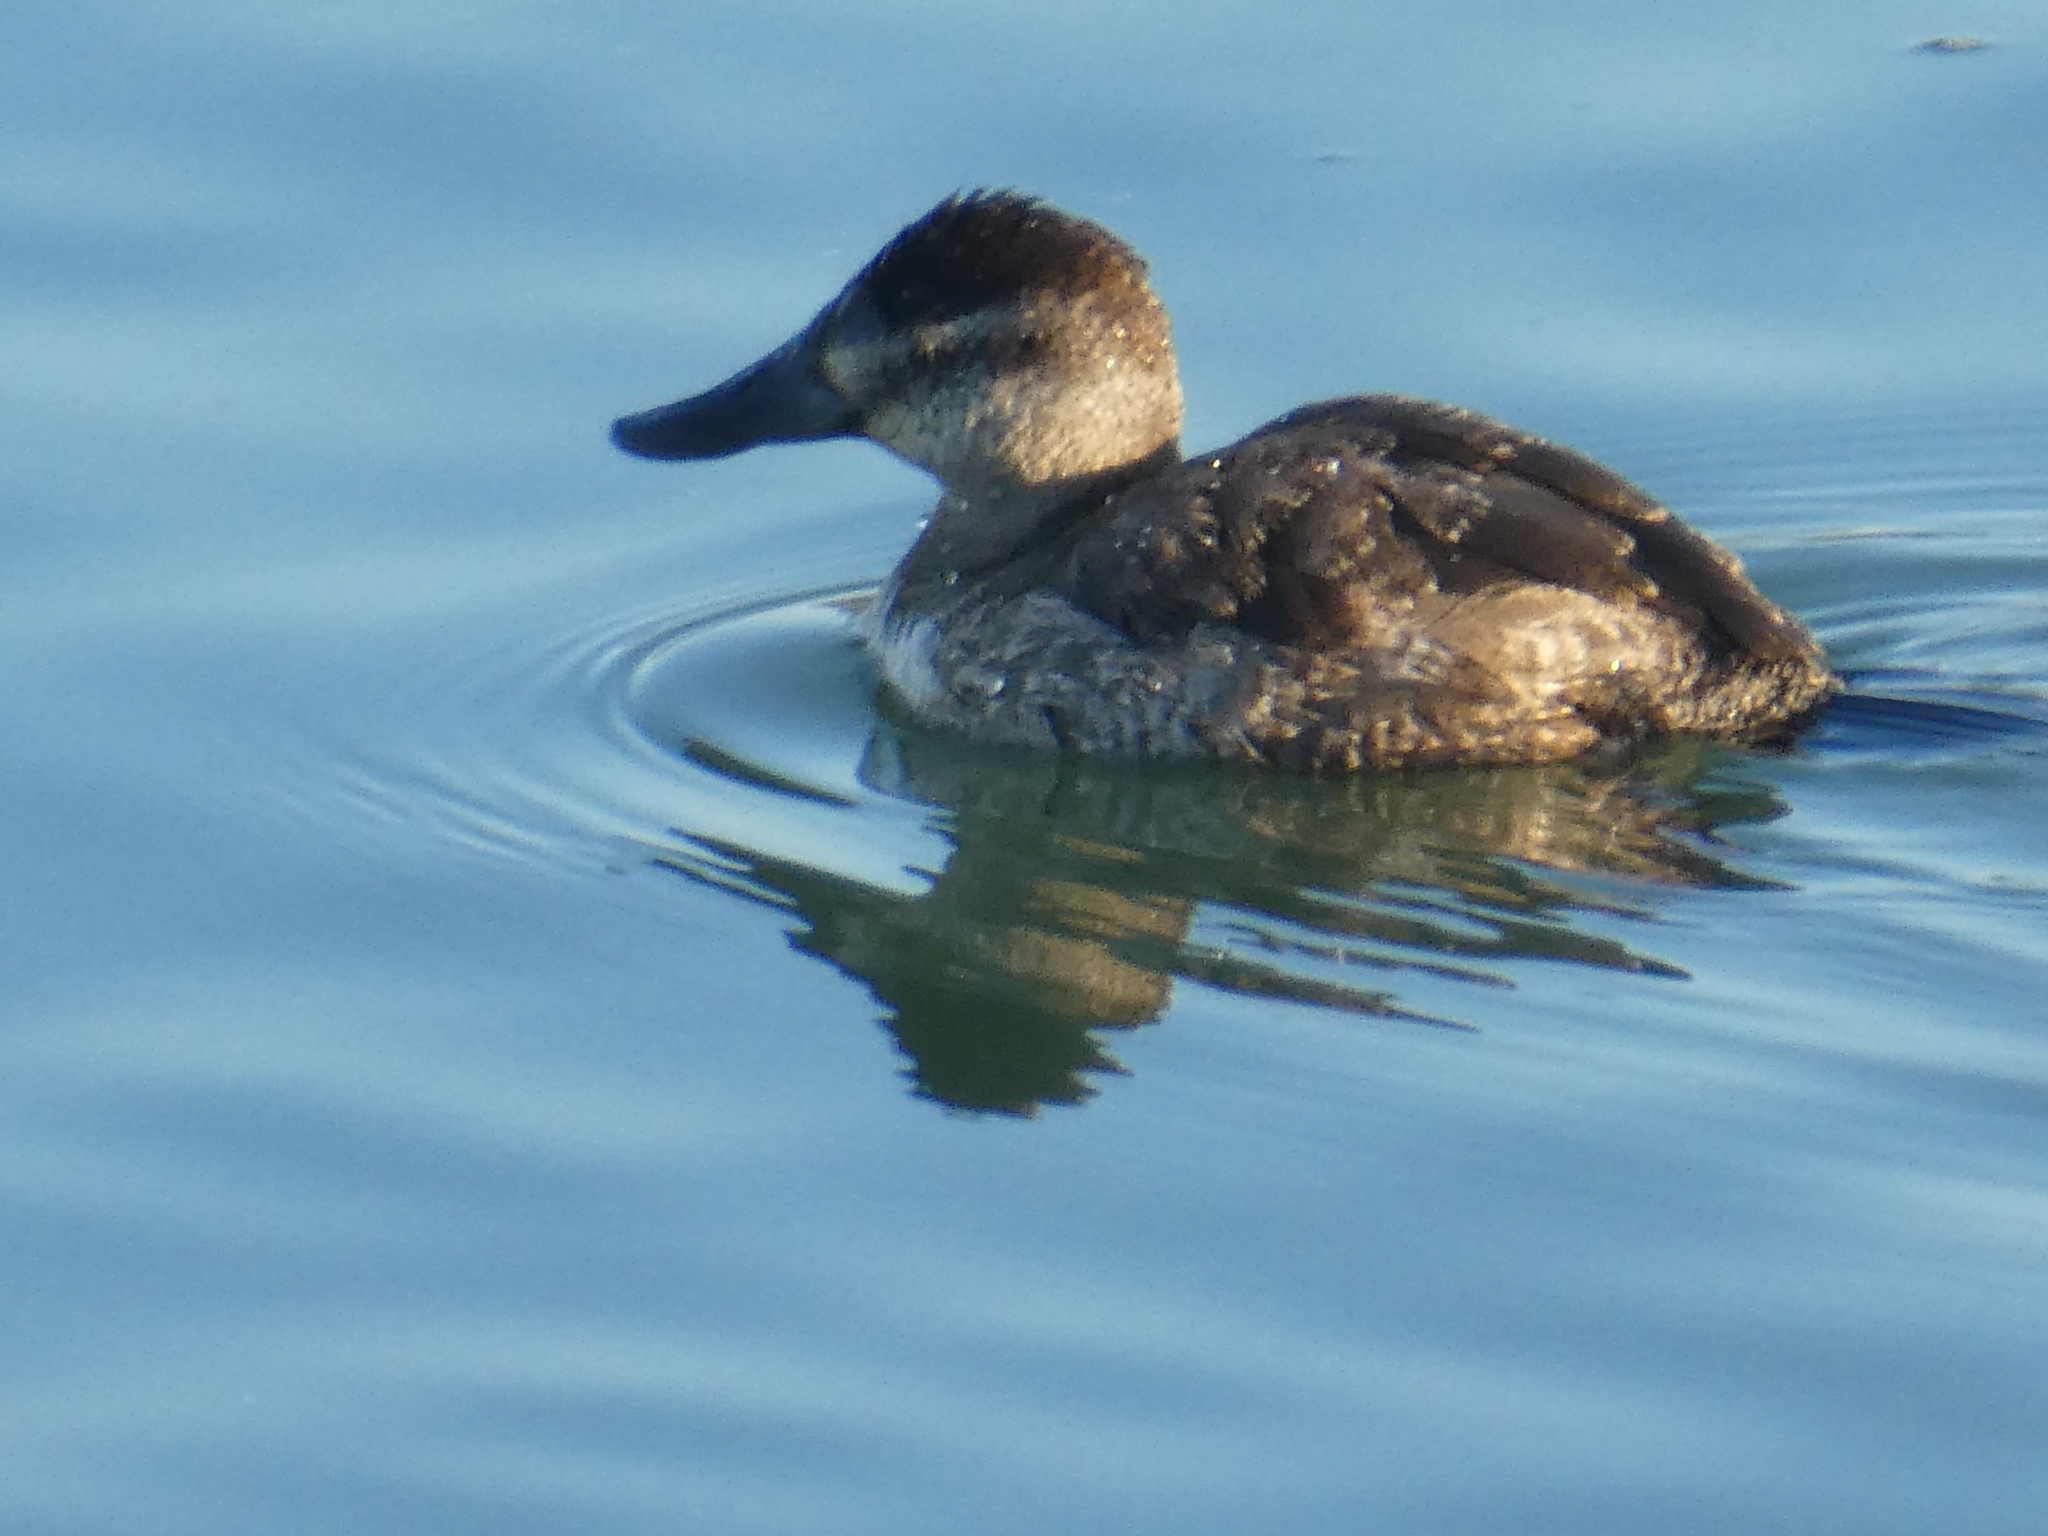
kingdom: Animalia
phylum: Chordata
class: Aves
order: Anseriformes
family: Anatidae
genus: Oxyura
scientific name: Oxyura jamaicensis
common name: Ruddy duck
